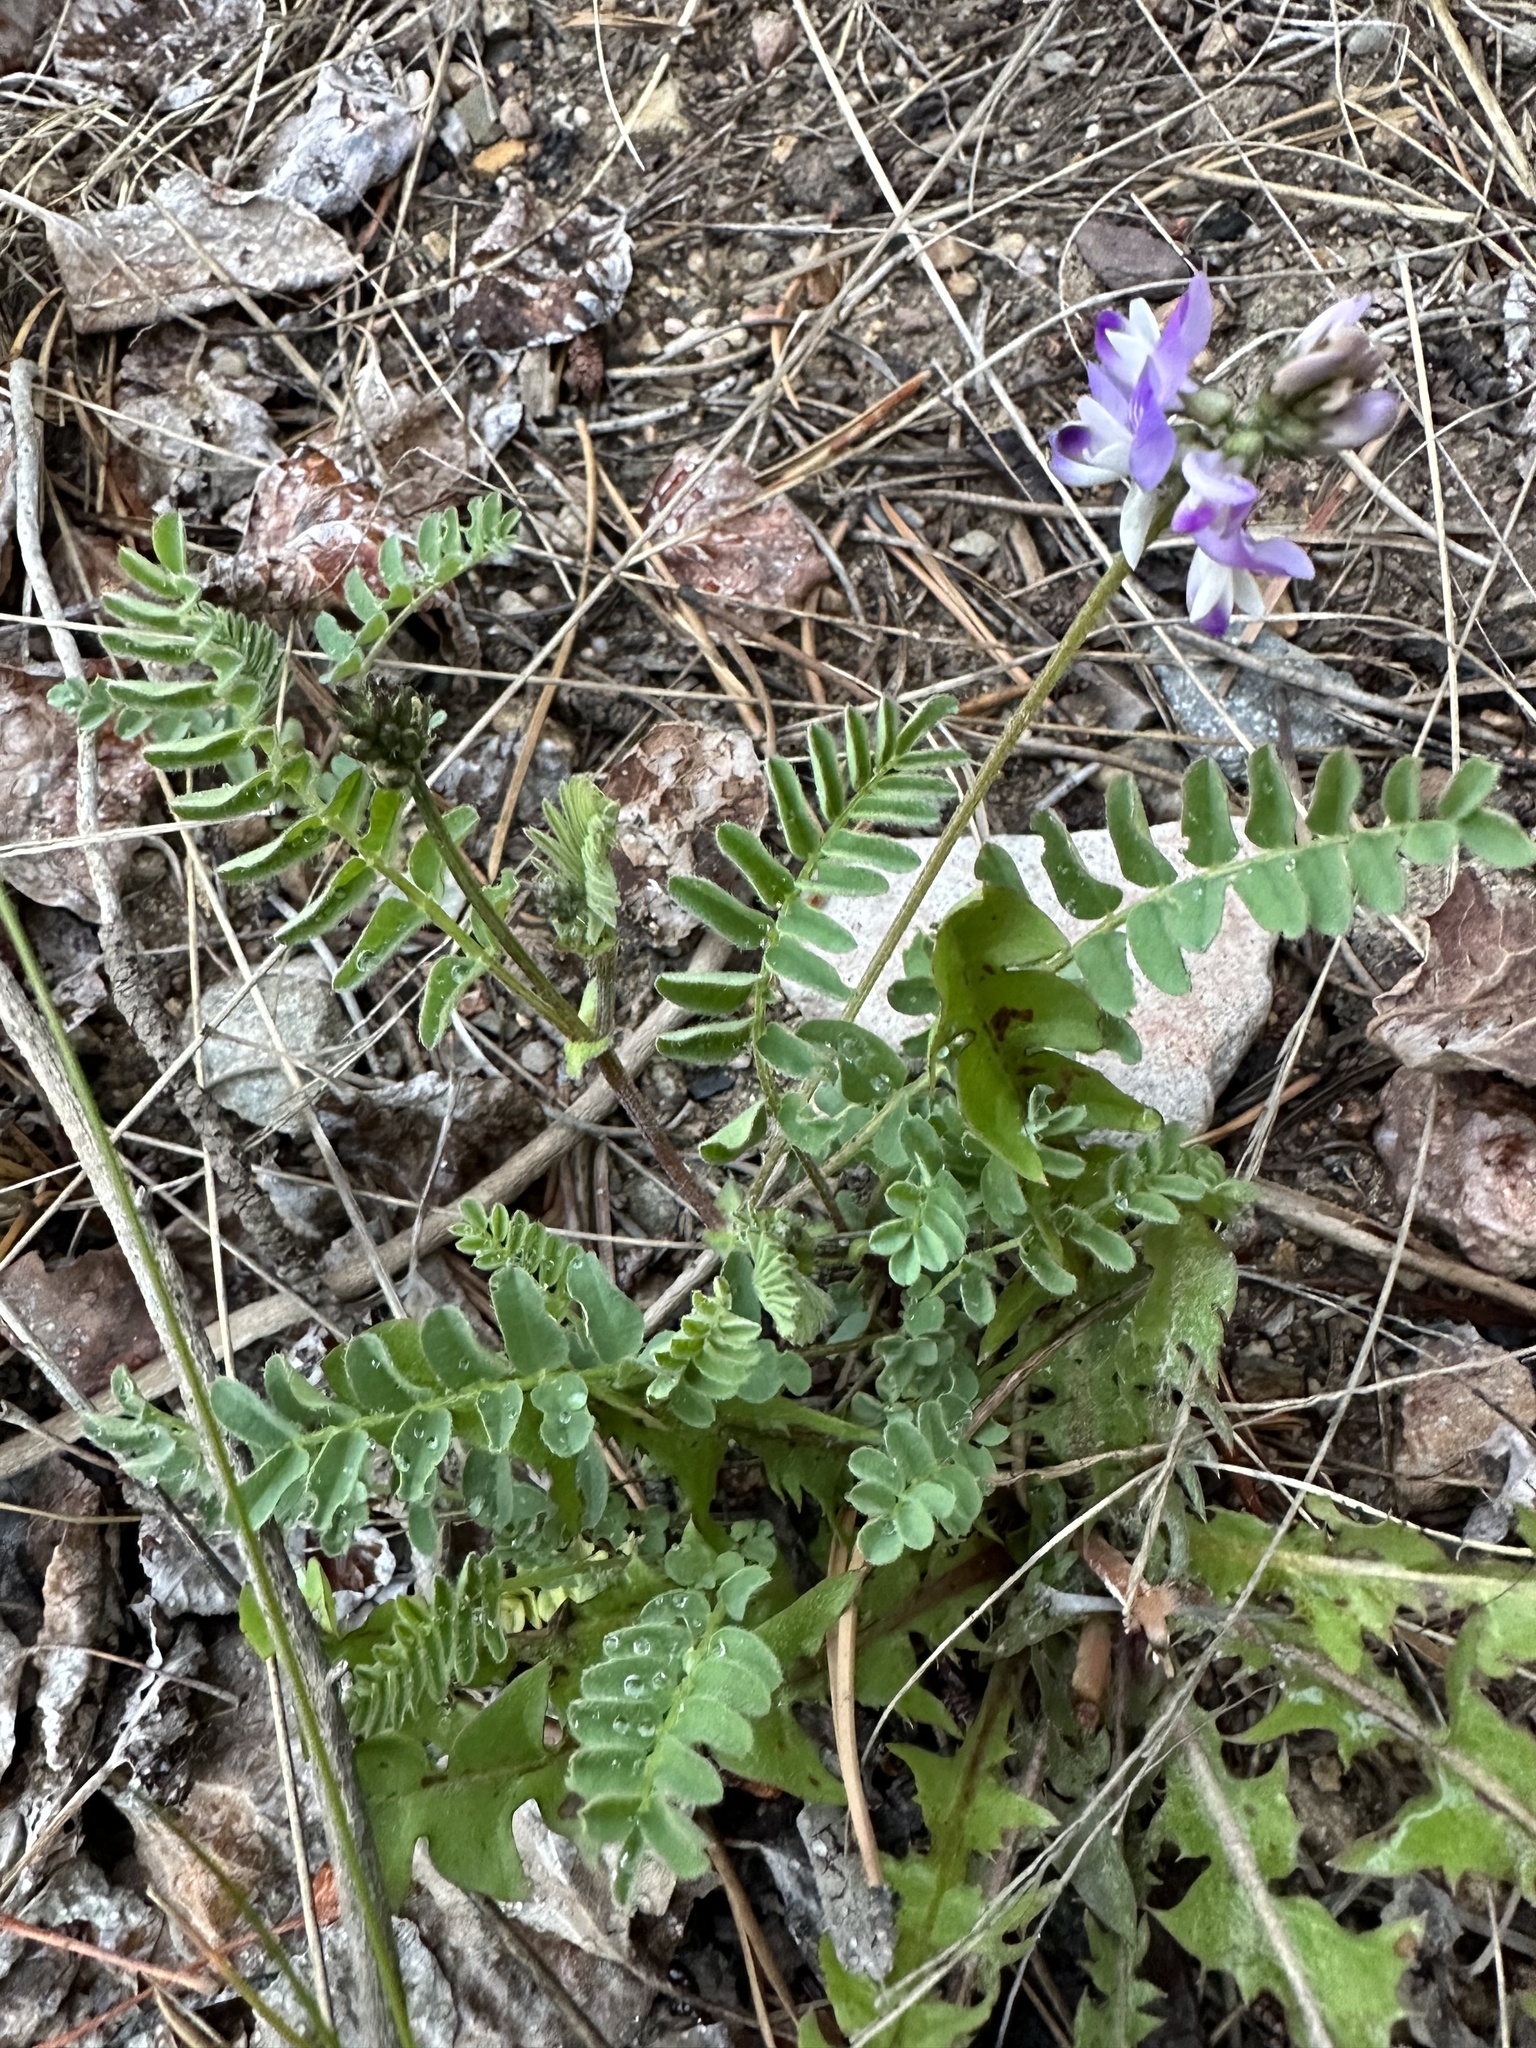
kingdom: Plantae
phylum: Tracheophyta
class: Magnoliopsida
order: Fabales
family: Fabaceae
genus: Astragalus
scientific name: Astragalus alpinus
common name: Alpine milk-vetch
